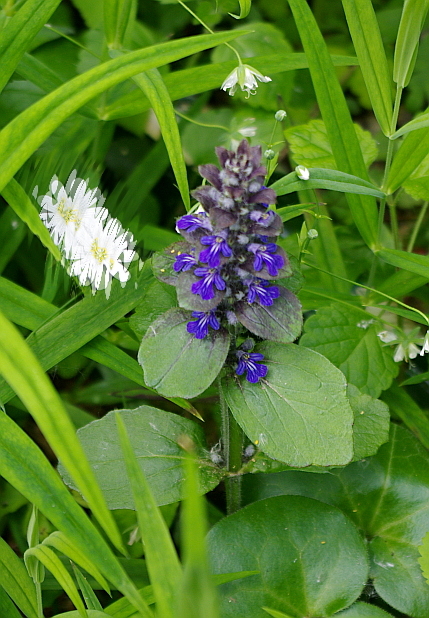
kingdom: Plantae
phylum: Tracheophyta
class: Magnoliopsida
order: Lamiales
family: Lamiaceae
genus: Ajuga
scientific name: Ajuga reptans
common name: Bugle
